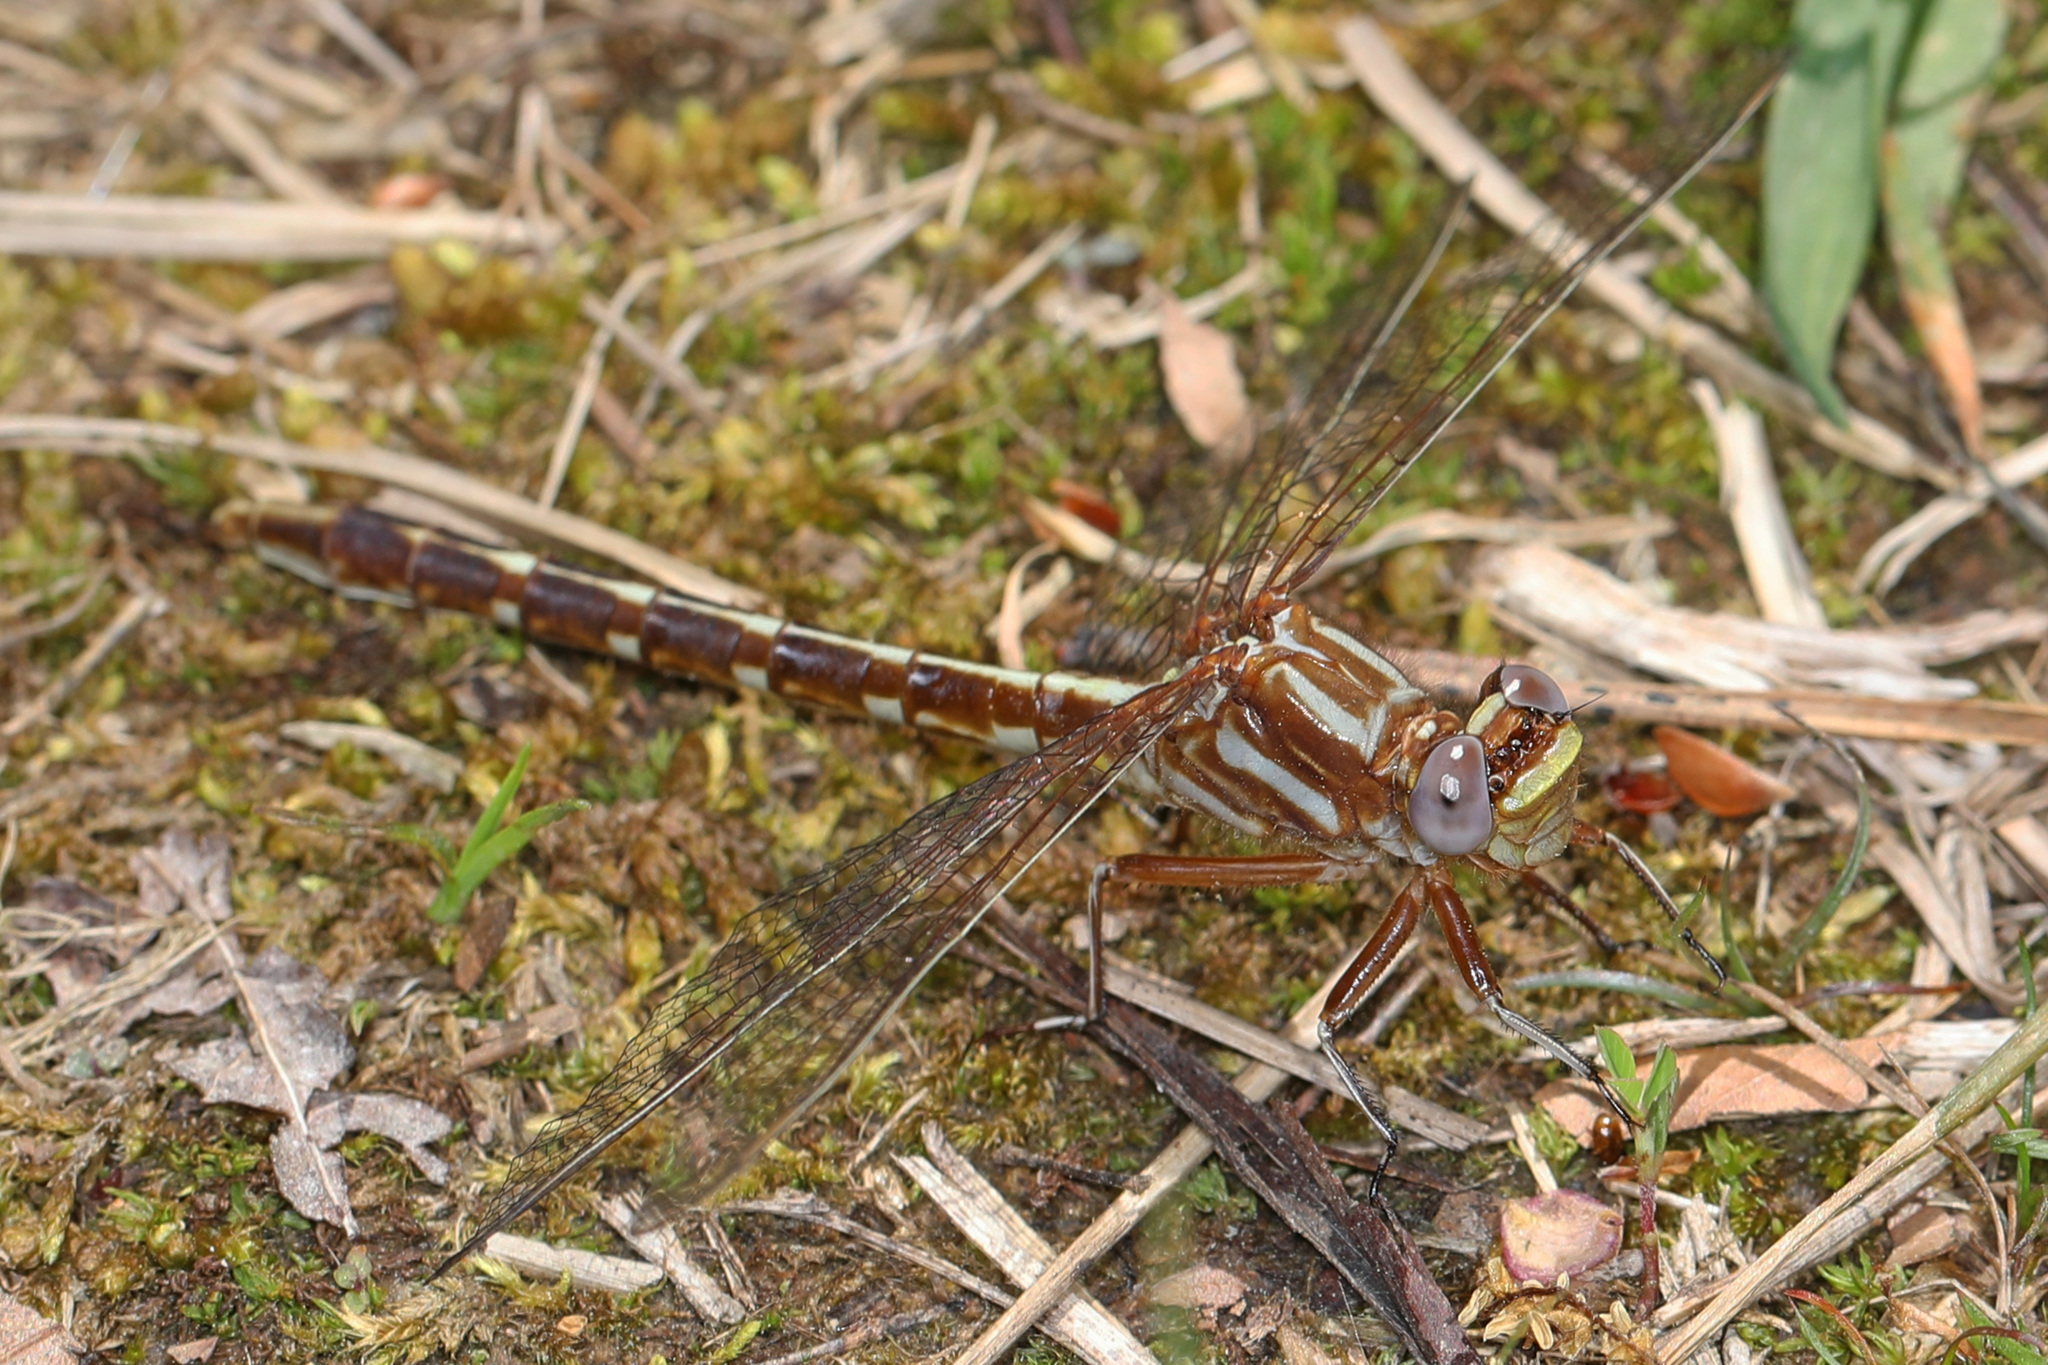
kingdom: Animalia
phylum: Arthropoda
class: Insecta
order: Odonata
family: Gomphidae
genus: Phanogomphus
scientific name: Phanogomphus lividus
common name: Ashy clubtail
